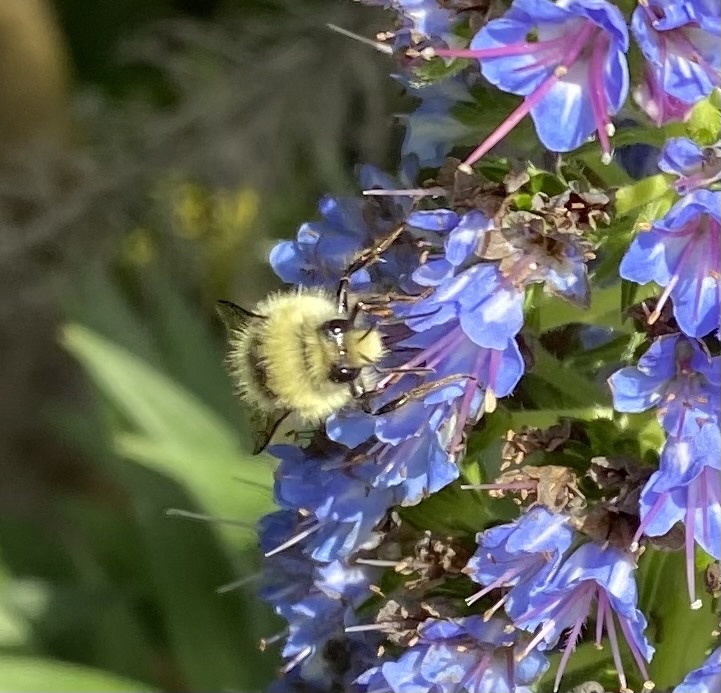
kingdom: Animalia
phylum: Arthropoda
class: Insecta
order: Hymenoptera
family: Apidae
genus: Bombus
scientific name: Bombus melanopygus
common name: Black tail bumble bee
